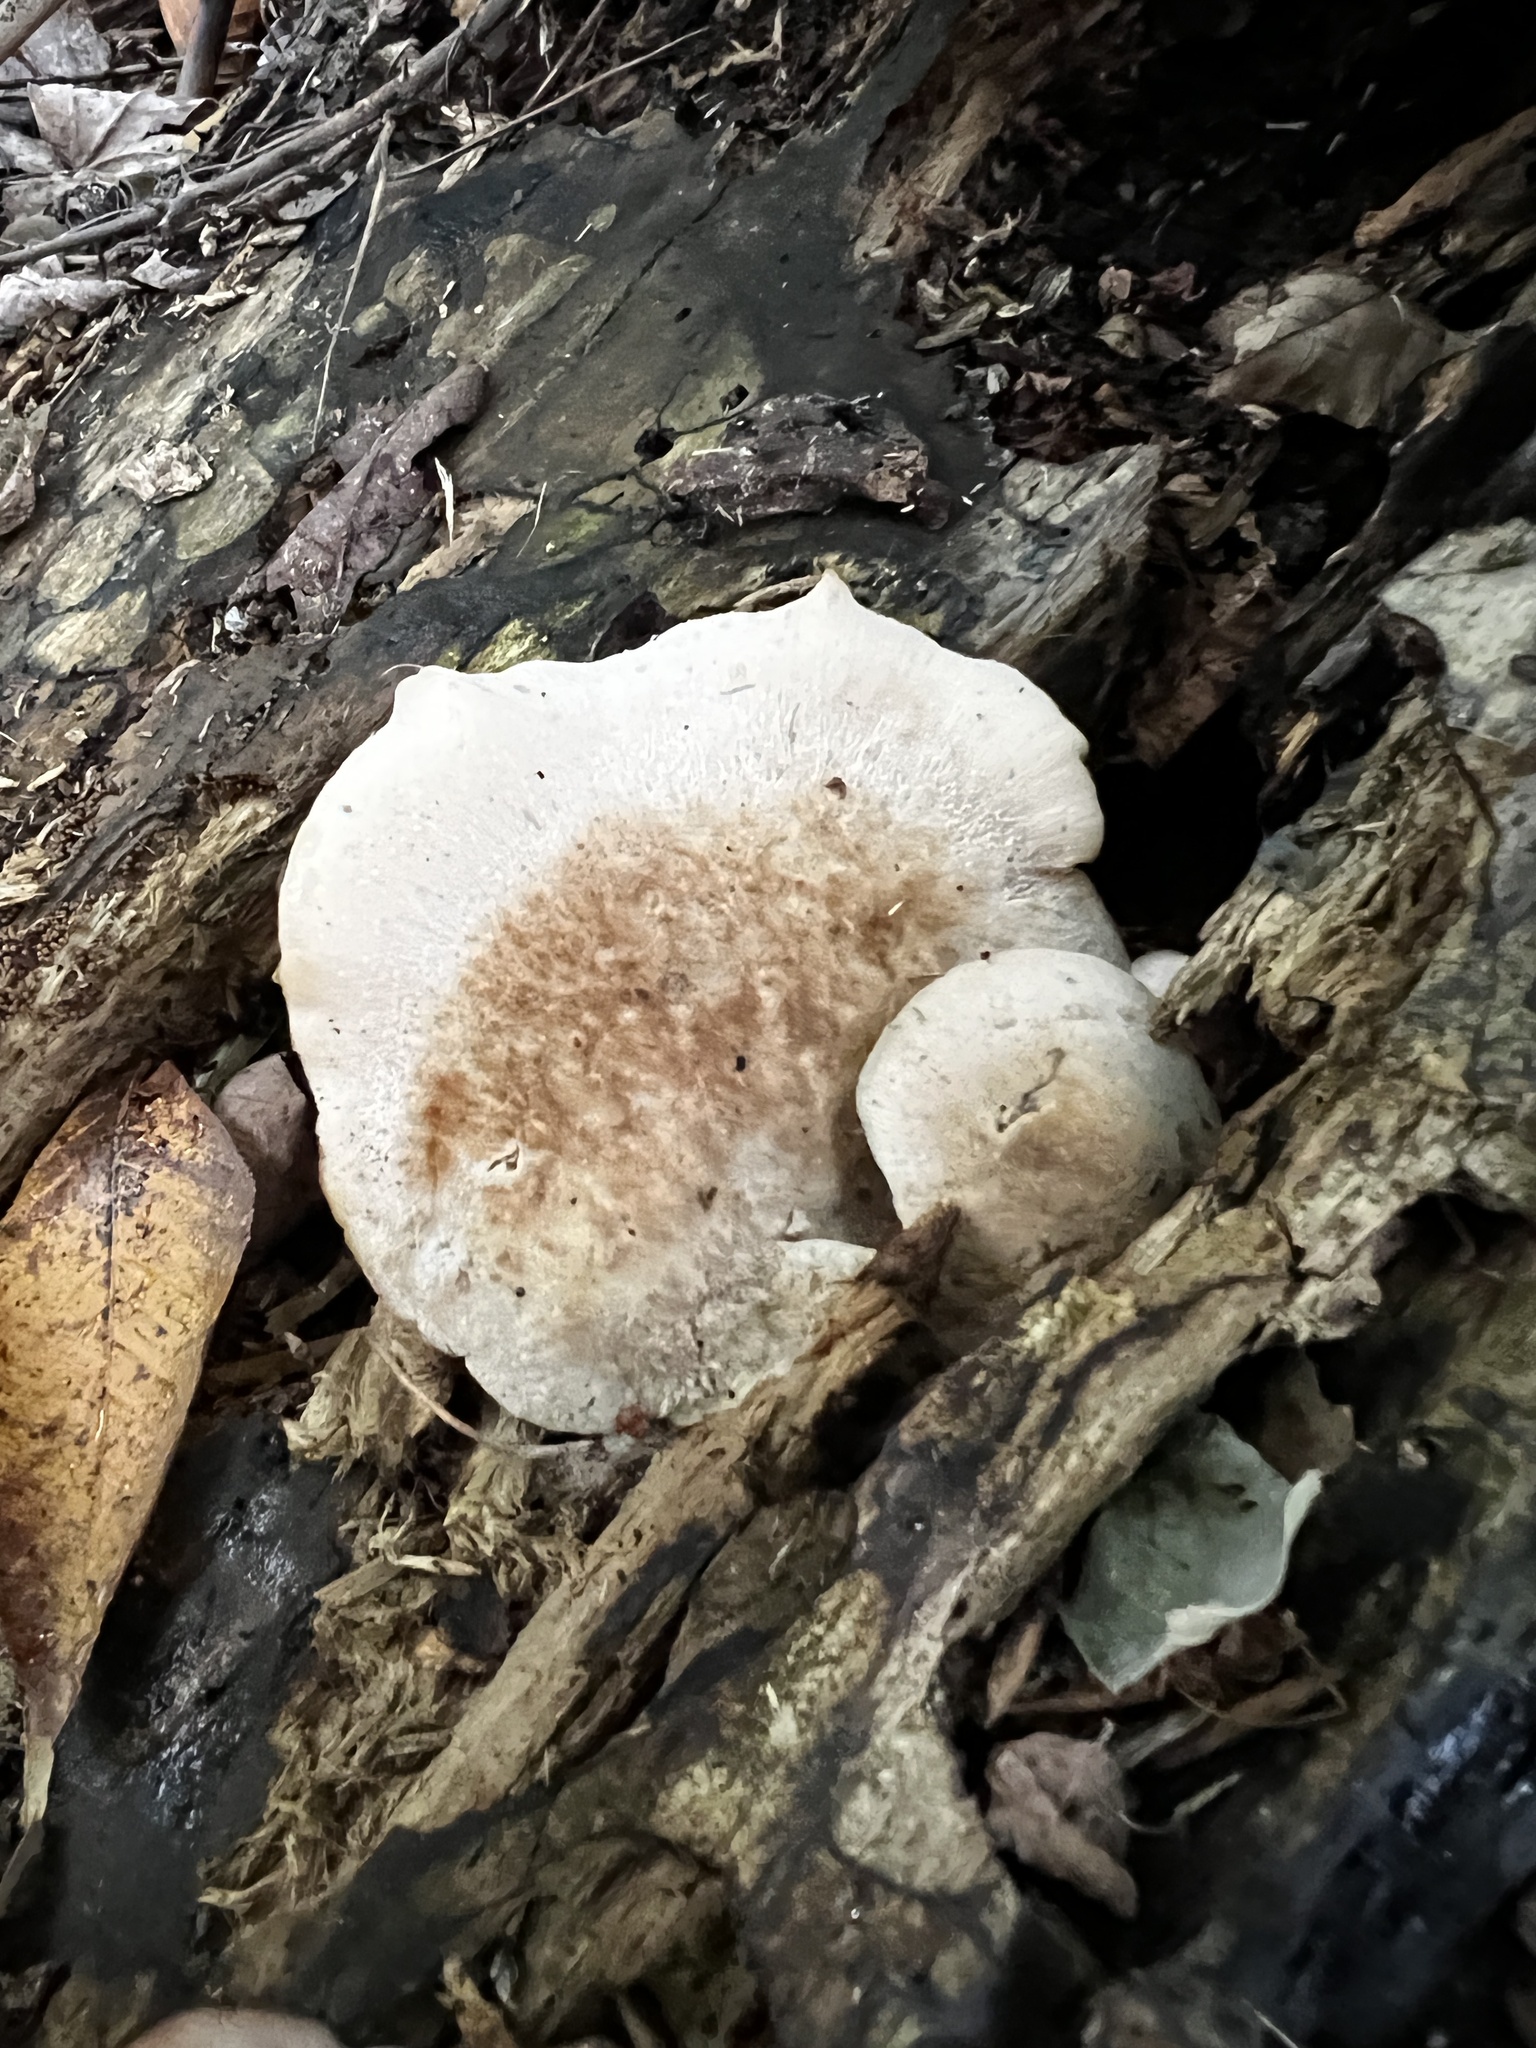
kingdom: Fungi
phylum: Basidiomycota
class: Agaricomycetes
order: Russulales
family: Auriscalpiaceae
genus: Lentinellus
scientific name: Lentinellus ursinus
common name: Bear lentinus
